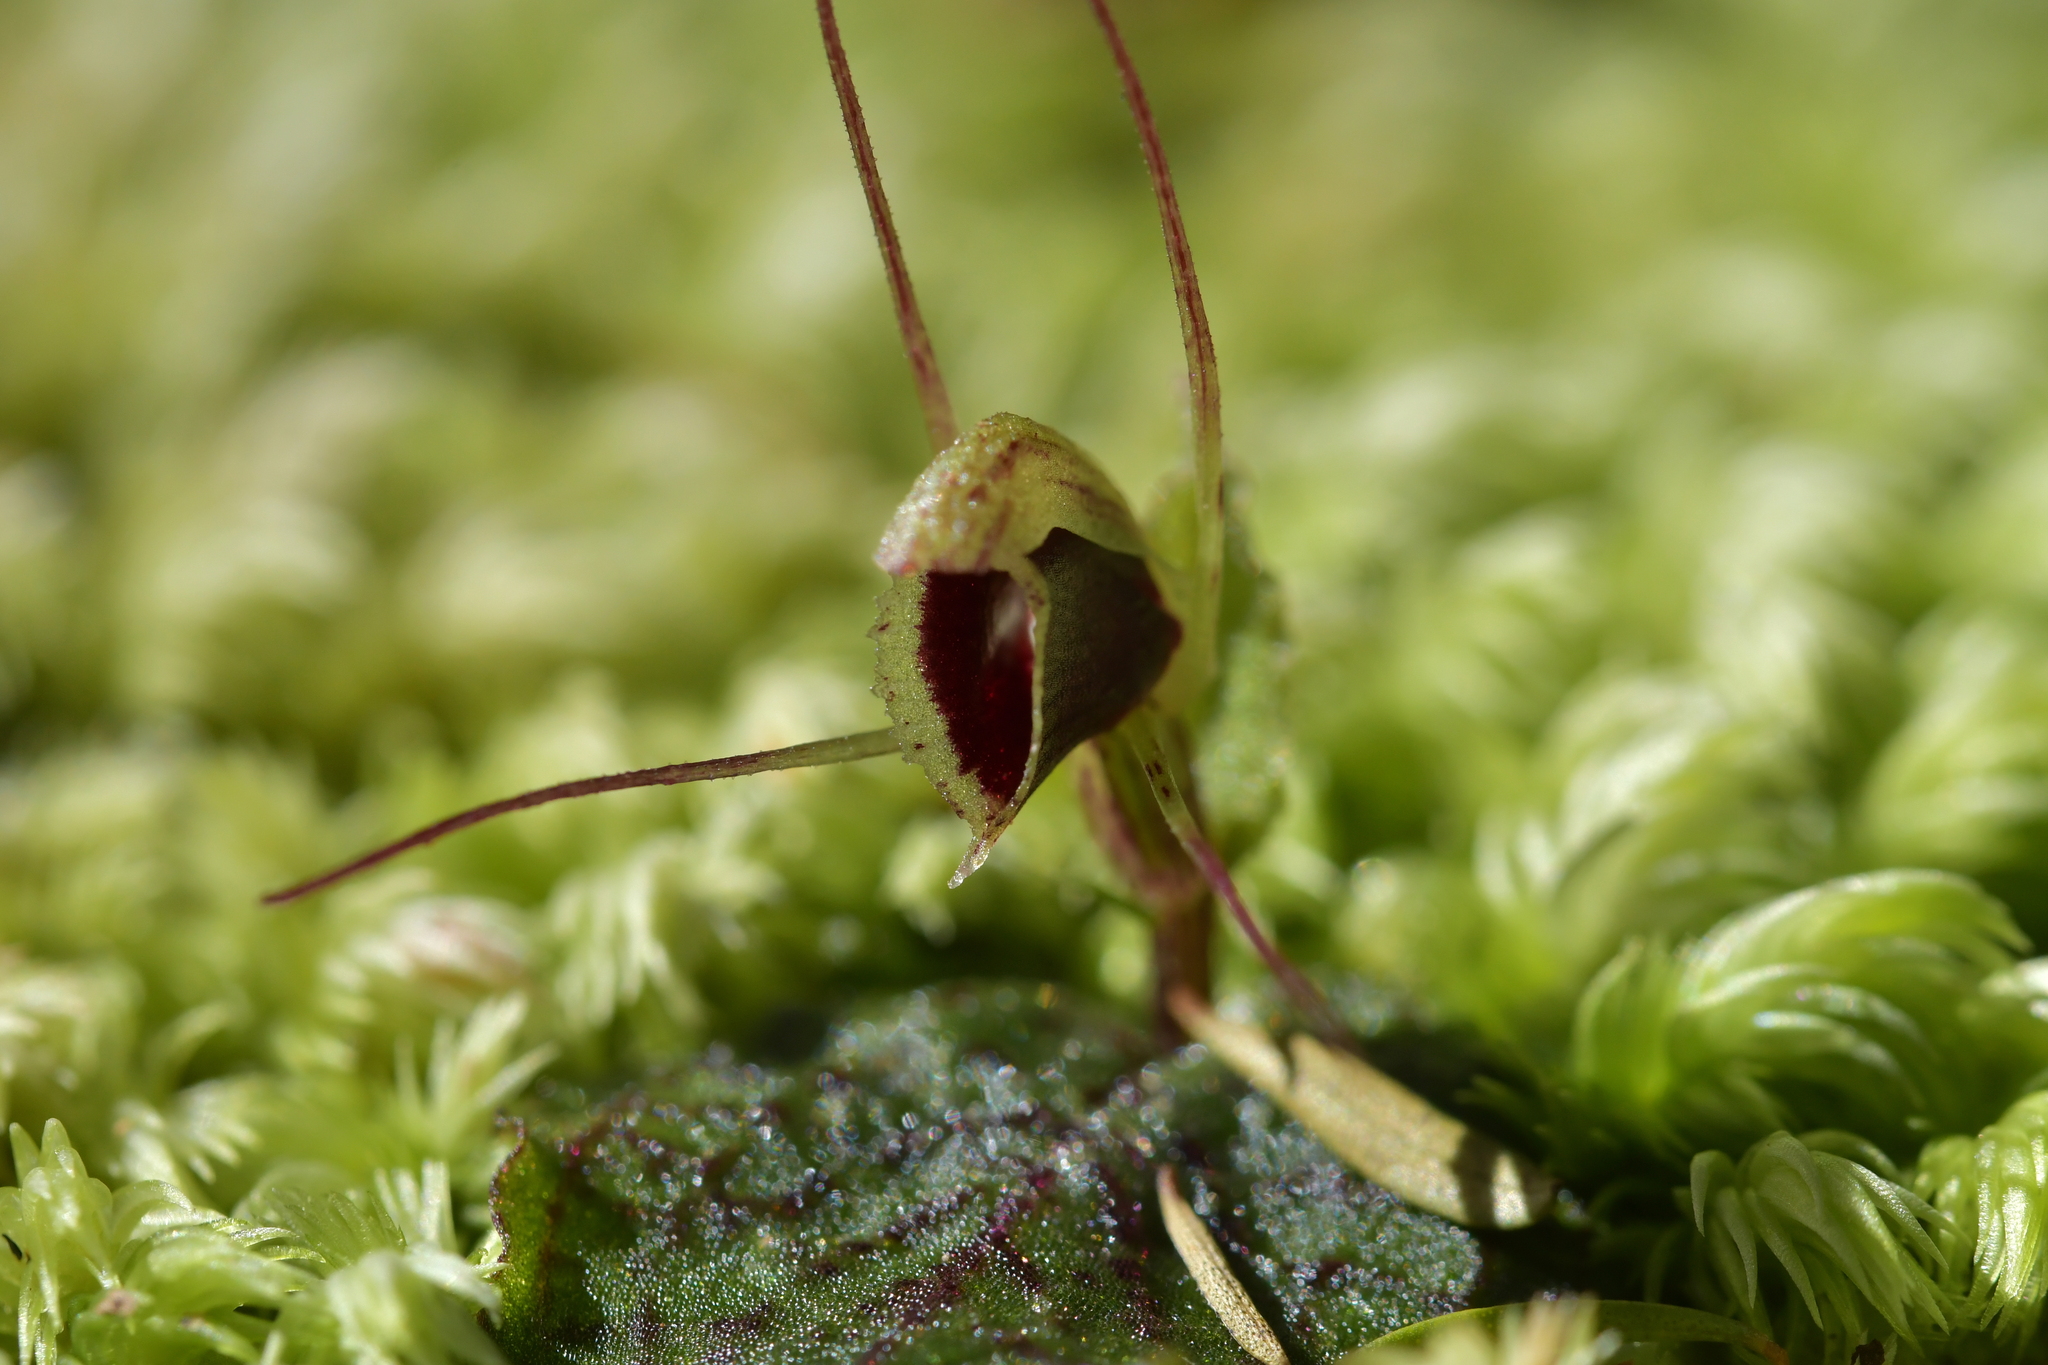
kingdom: Plantae
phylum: Tracheophyta
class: Liliopsida
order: Asparagales
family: Orchidaceae
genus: Corybas
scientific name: Corybas oblongus
